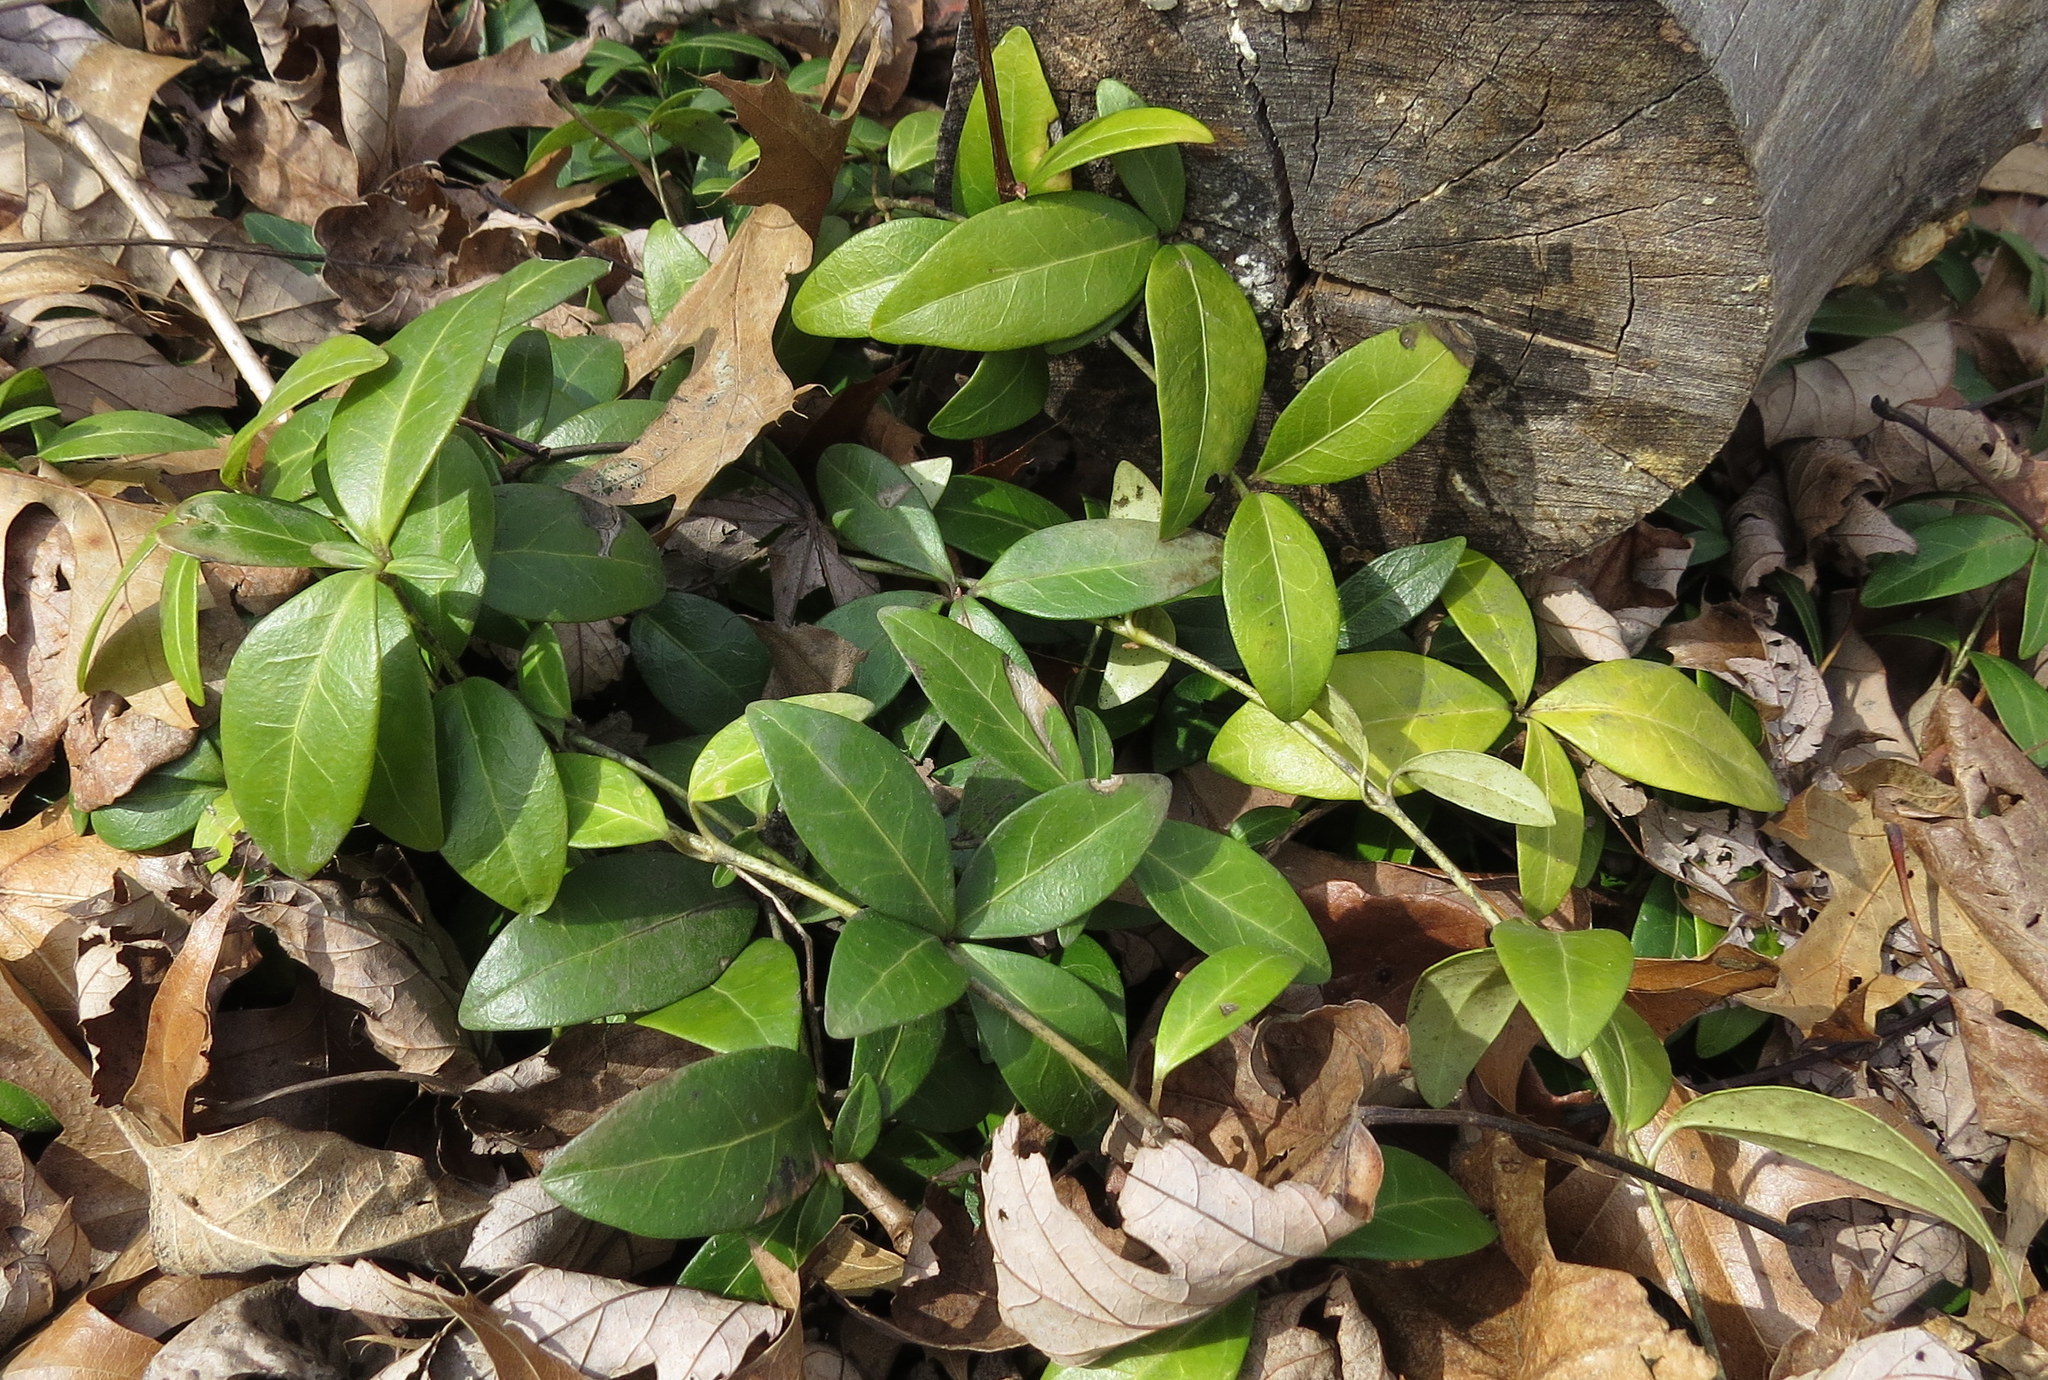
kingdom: Plantae
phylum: Tracheophyta
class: Magnoliopsida
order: Gentianales
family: Apocynaceae
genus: Vinca
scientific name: Vinca minor
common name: Lesser periwinkle
